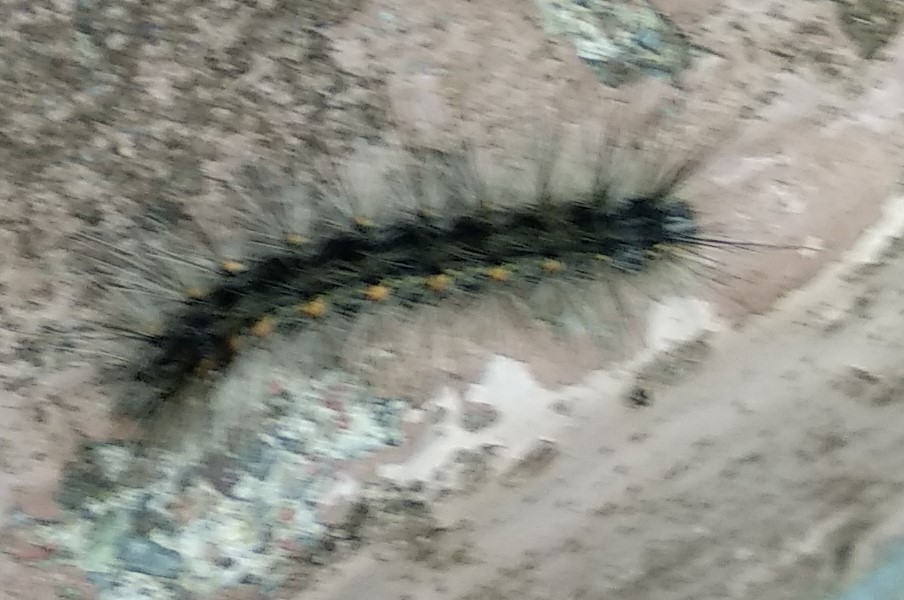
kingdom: Animalia
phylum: Arthropoda
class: Insecta
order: Lepidoptera
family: Erebidae
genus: Hyphantria
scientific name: Hyphantria cunea
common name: American white moth
